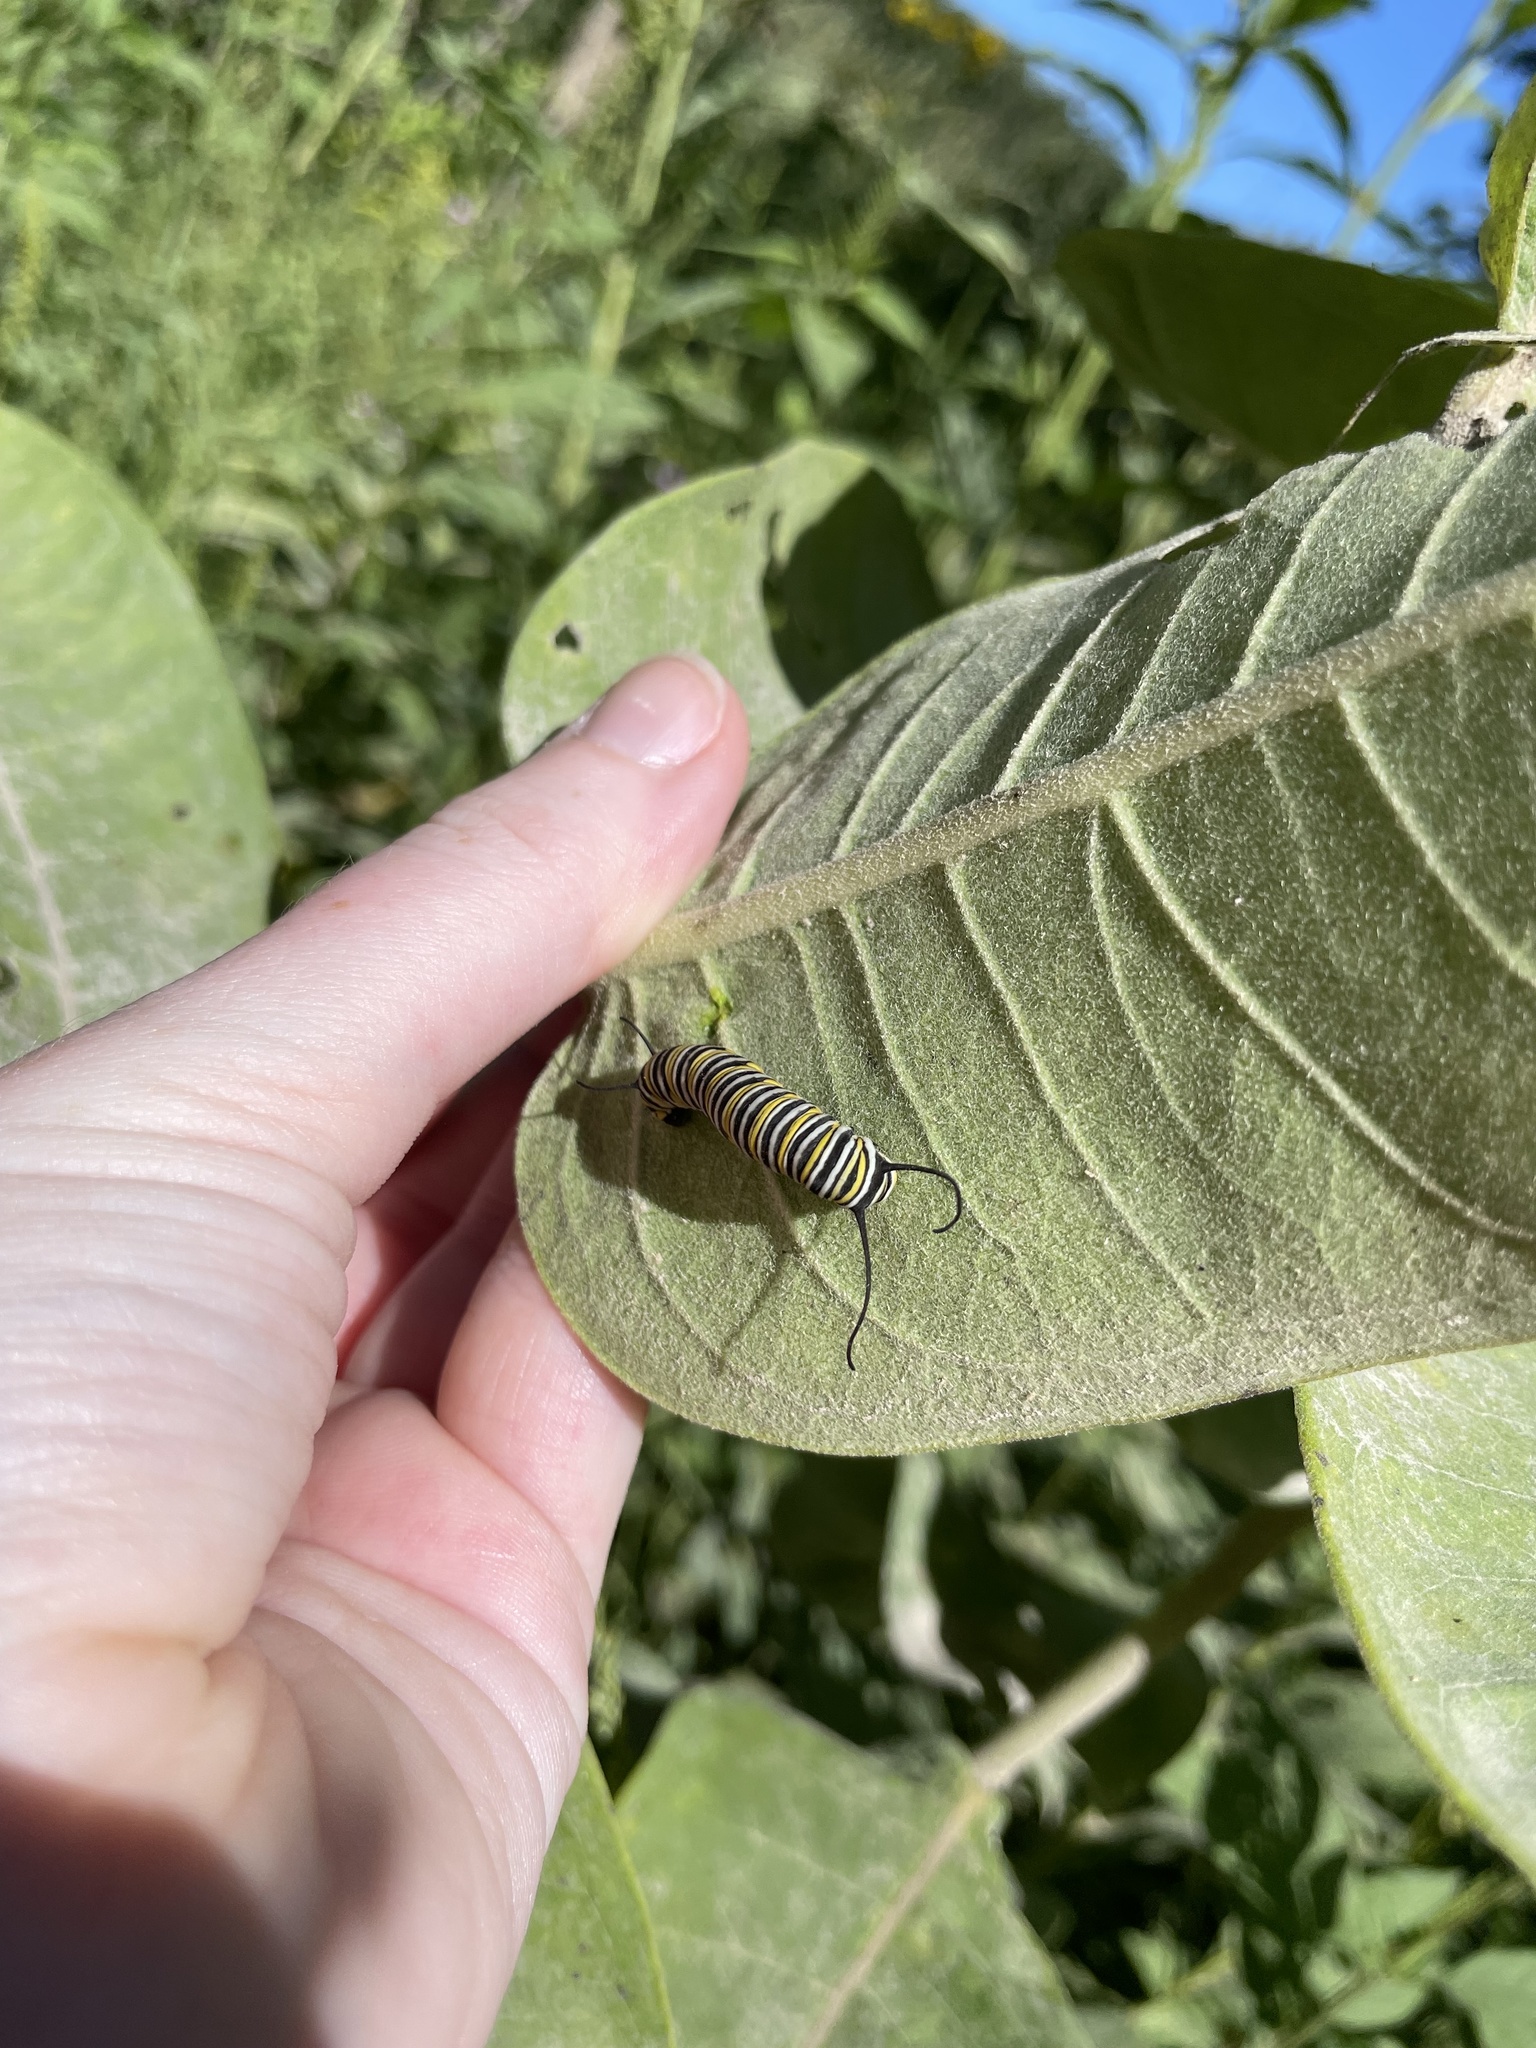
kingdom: Animalia
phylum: Arthropoda
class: Insecta
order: Lepidoptera
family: Nymphalidae
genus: Danaus
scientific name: Danaus plexippus
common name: Monarch
